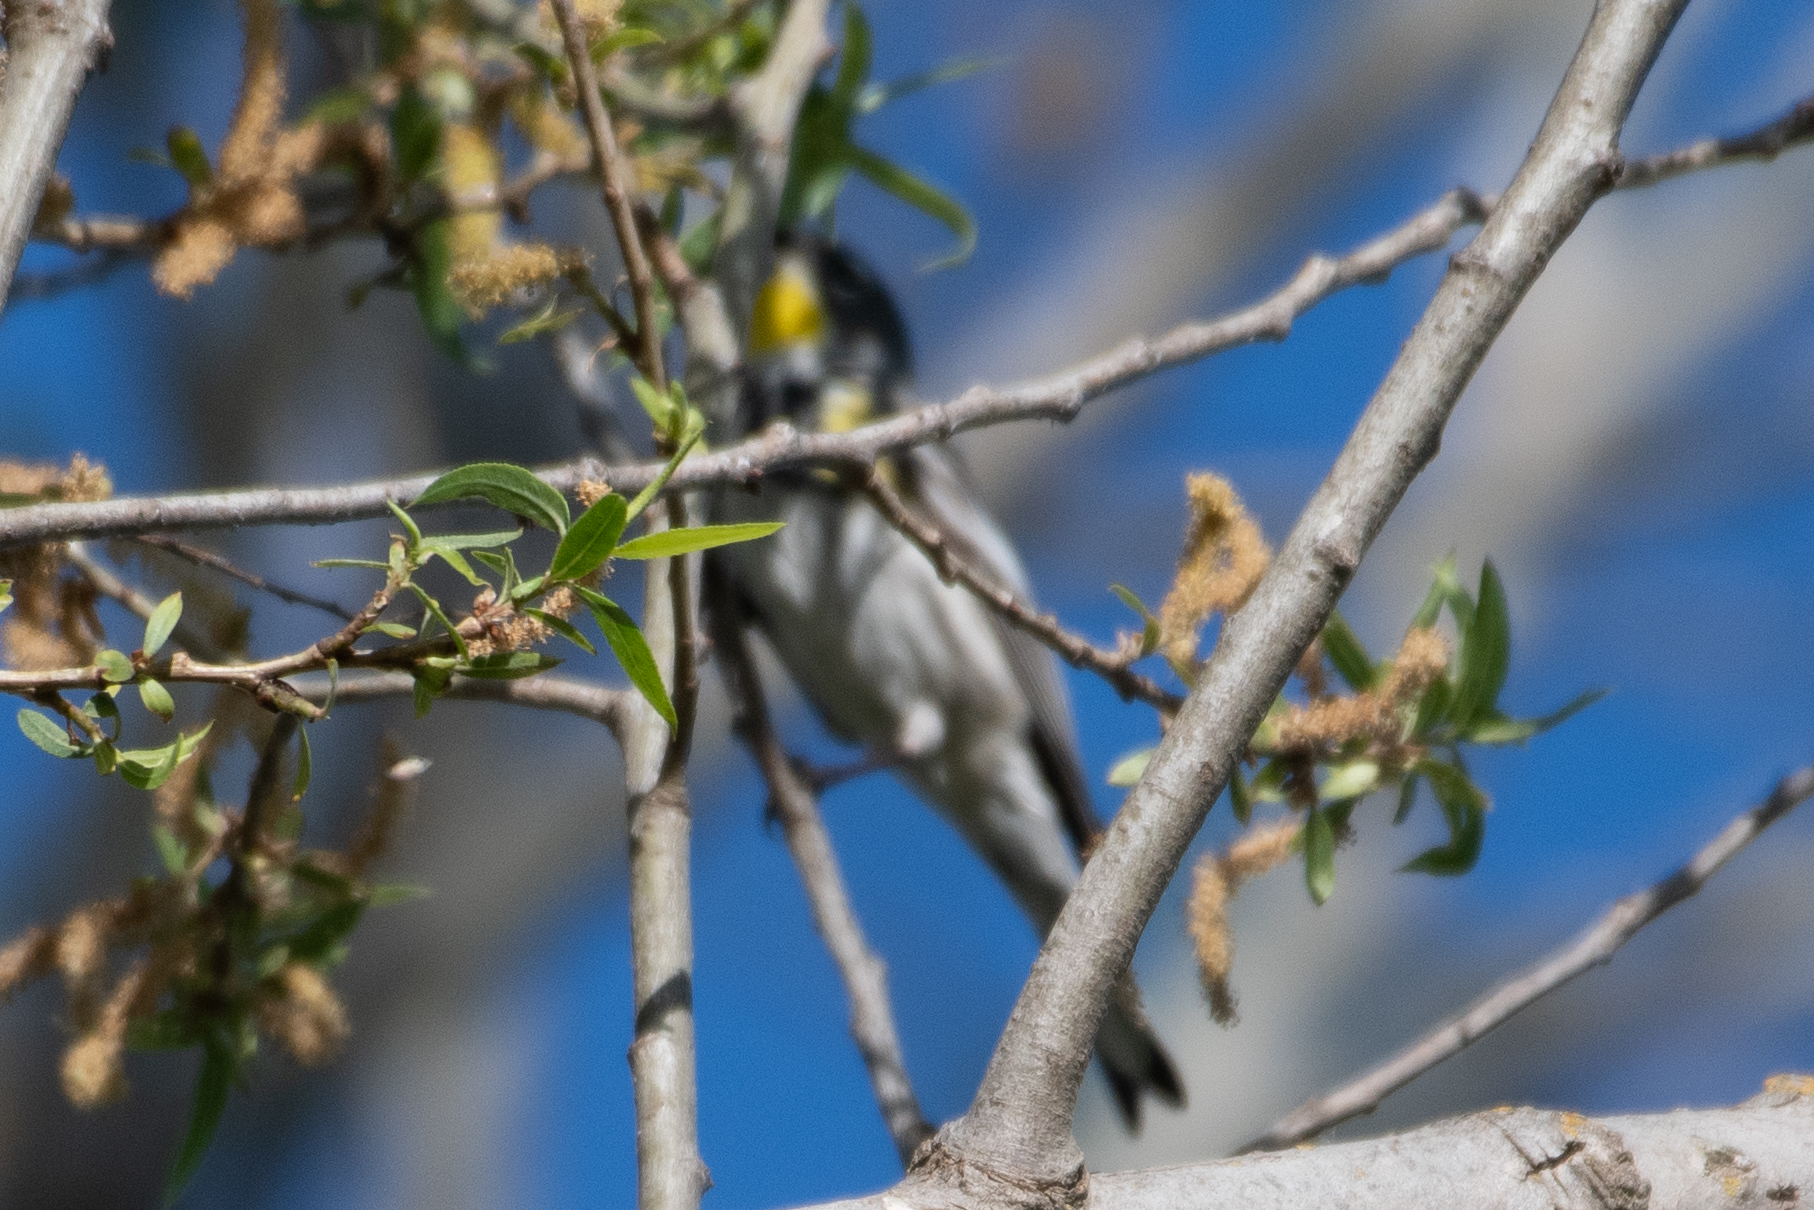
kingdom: Animalia
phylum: Chordata
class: Aves
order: Passeriformes
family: Parulidae
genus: Setophaga
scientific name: Setophaga coronata
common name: Myrtle warbler
